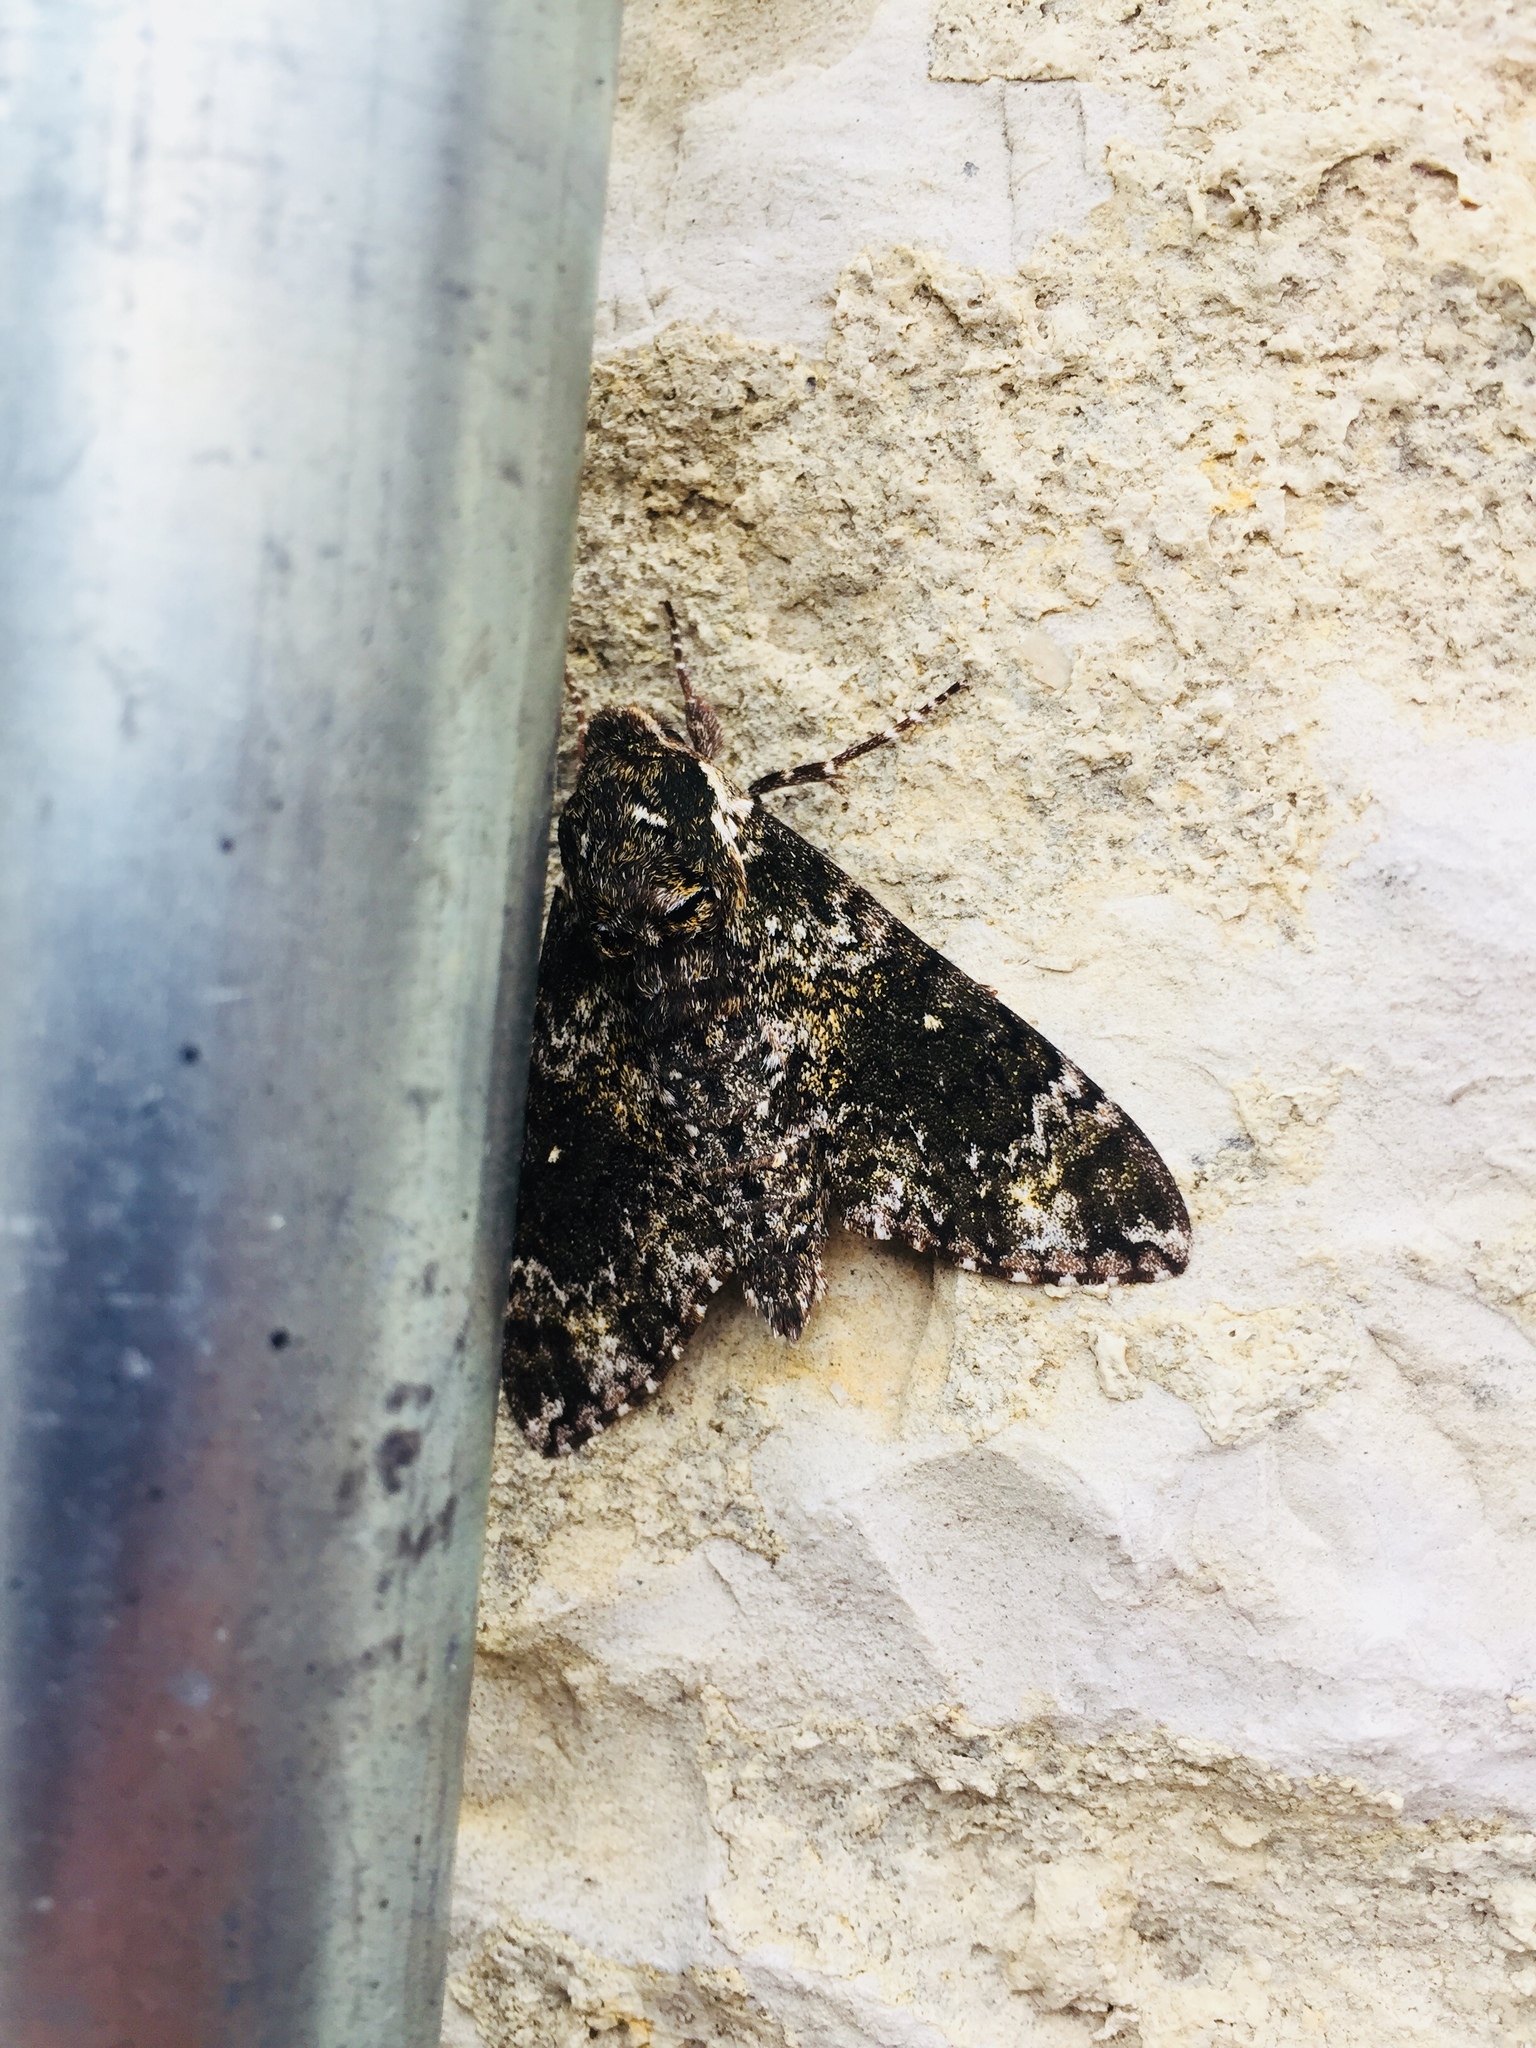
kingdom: Animalia
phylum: Arthropoda
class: Insecta
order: Lepidoptera
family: Sphingidae
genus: Manduca
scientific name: Manduca rustica
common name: Rustic sphinx
